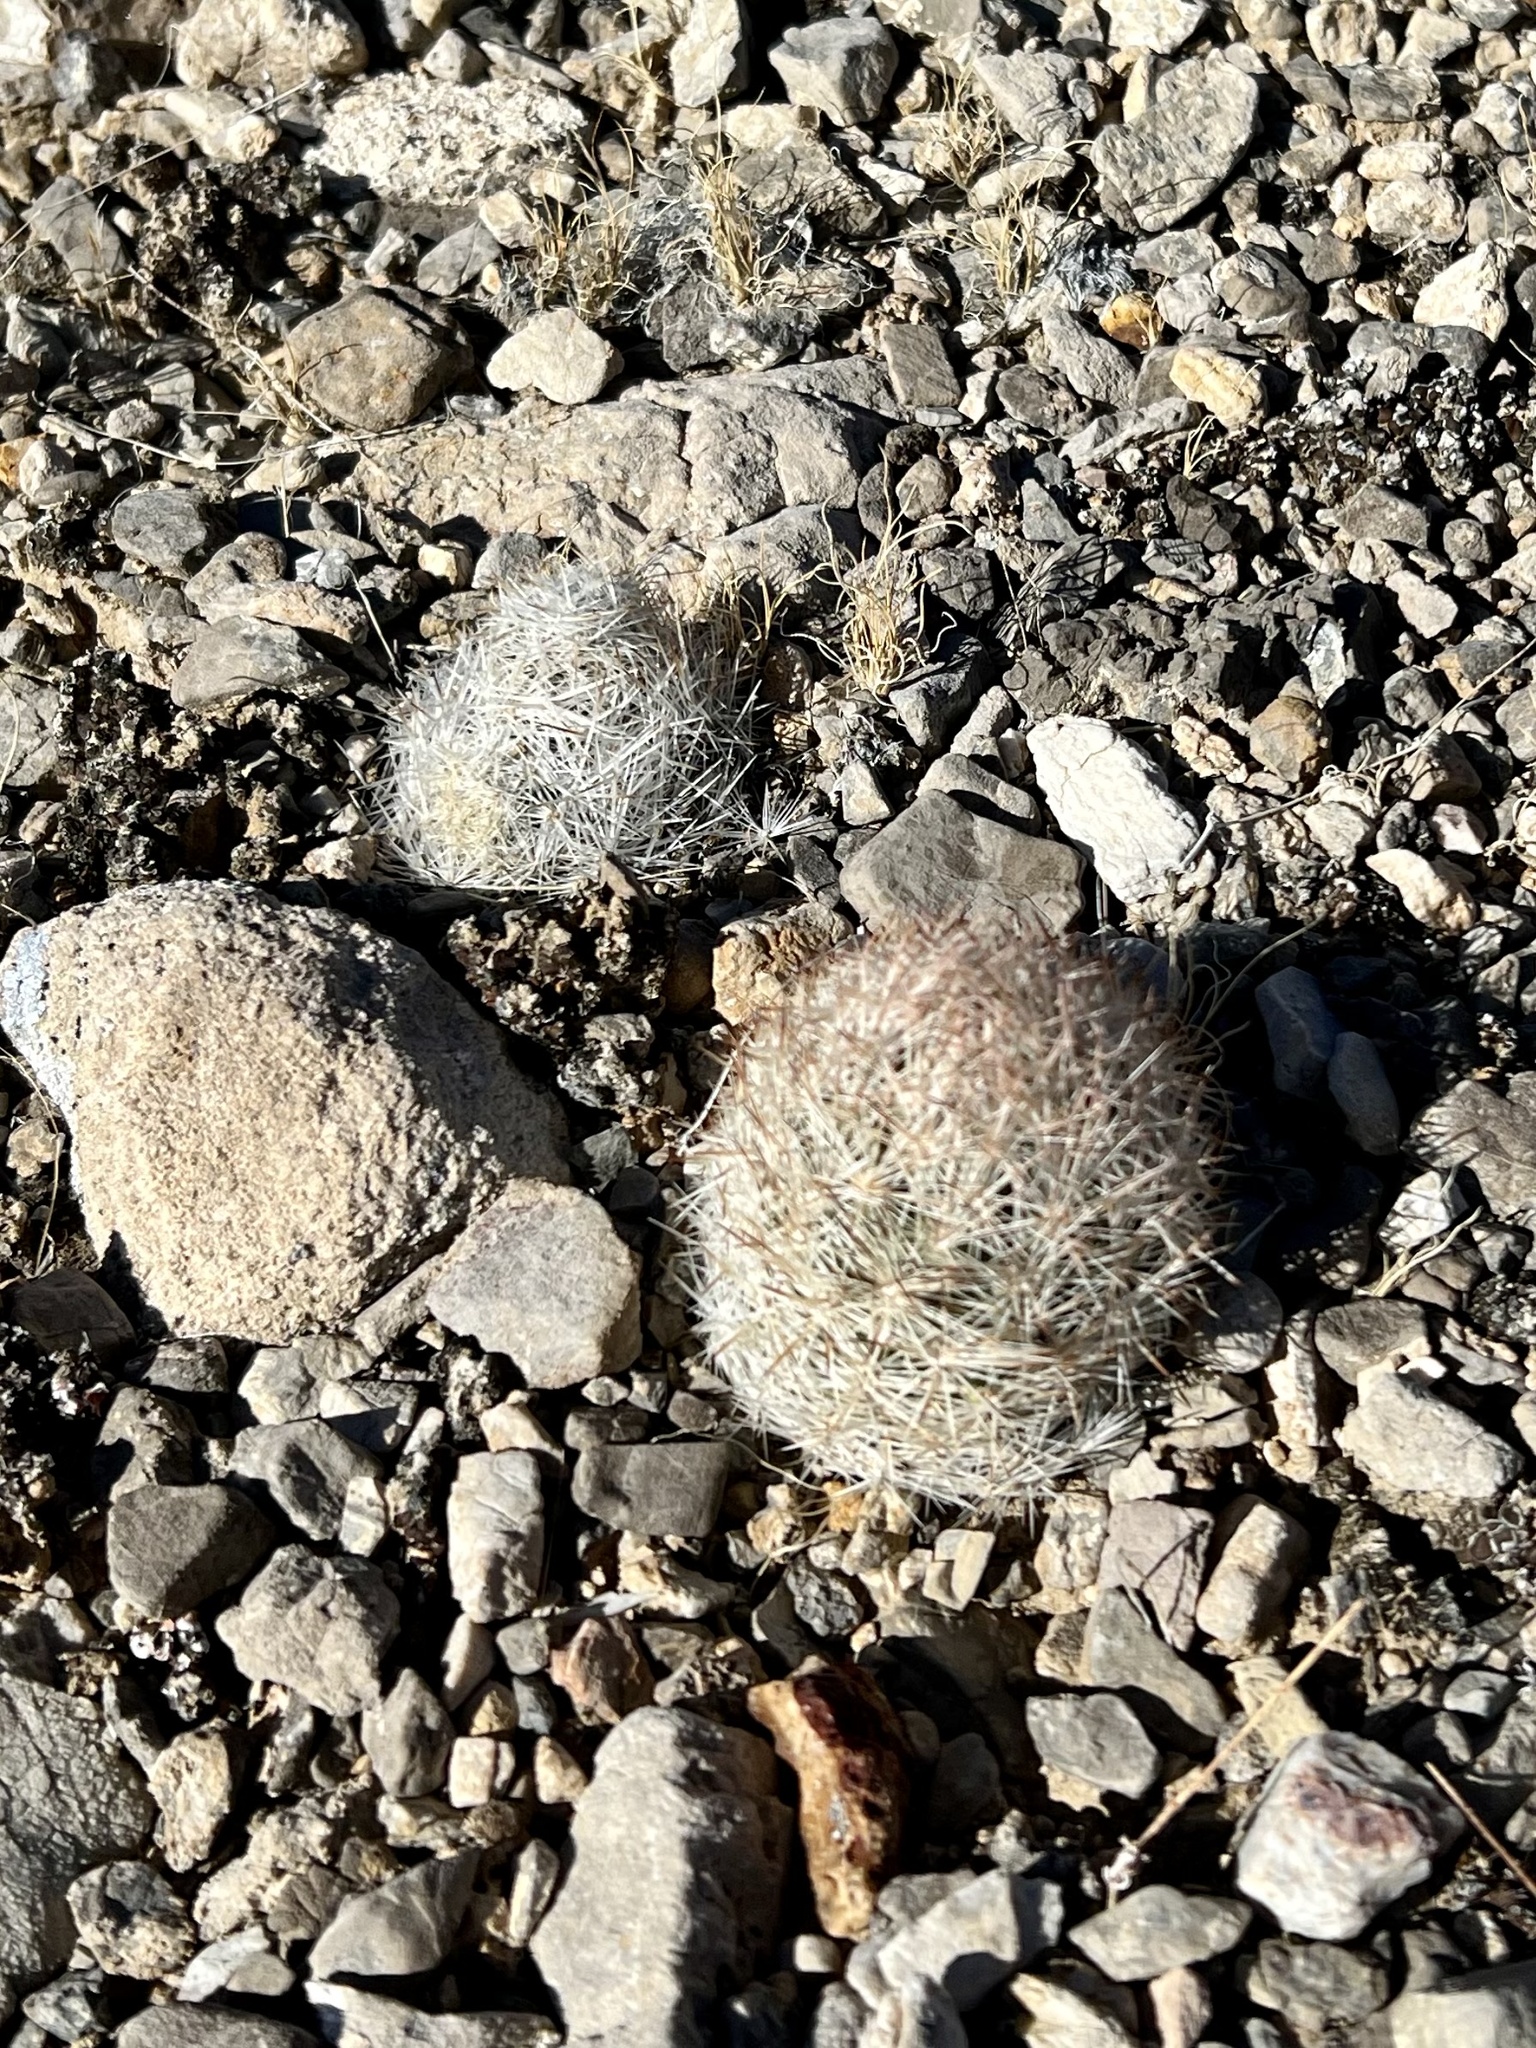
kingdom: Plantae
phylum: Tracheophyta
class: Magnoliopsida
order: Caryophyllales
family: Cactaceae
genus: Pelecyphora
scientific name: Pelecyphora dasyacantha
